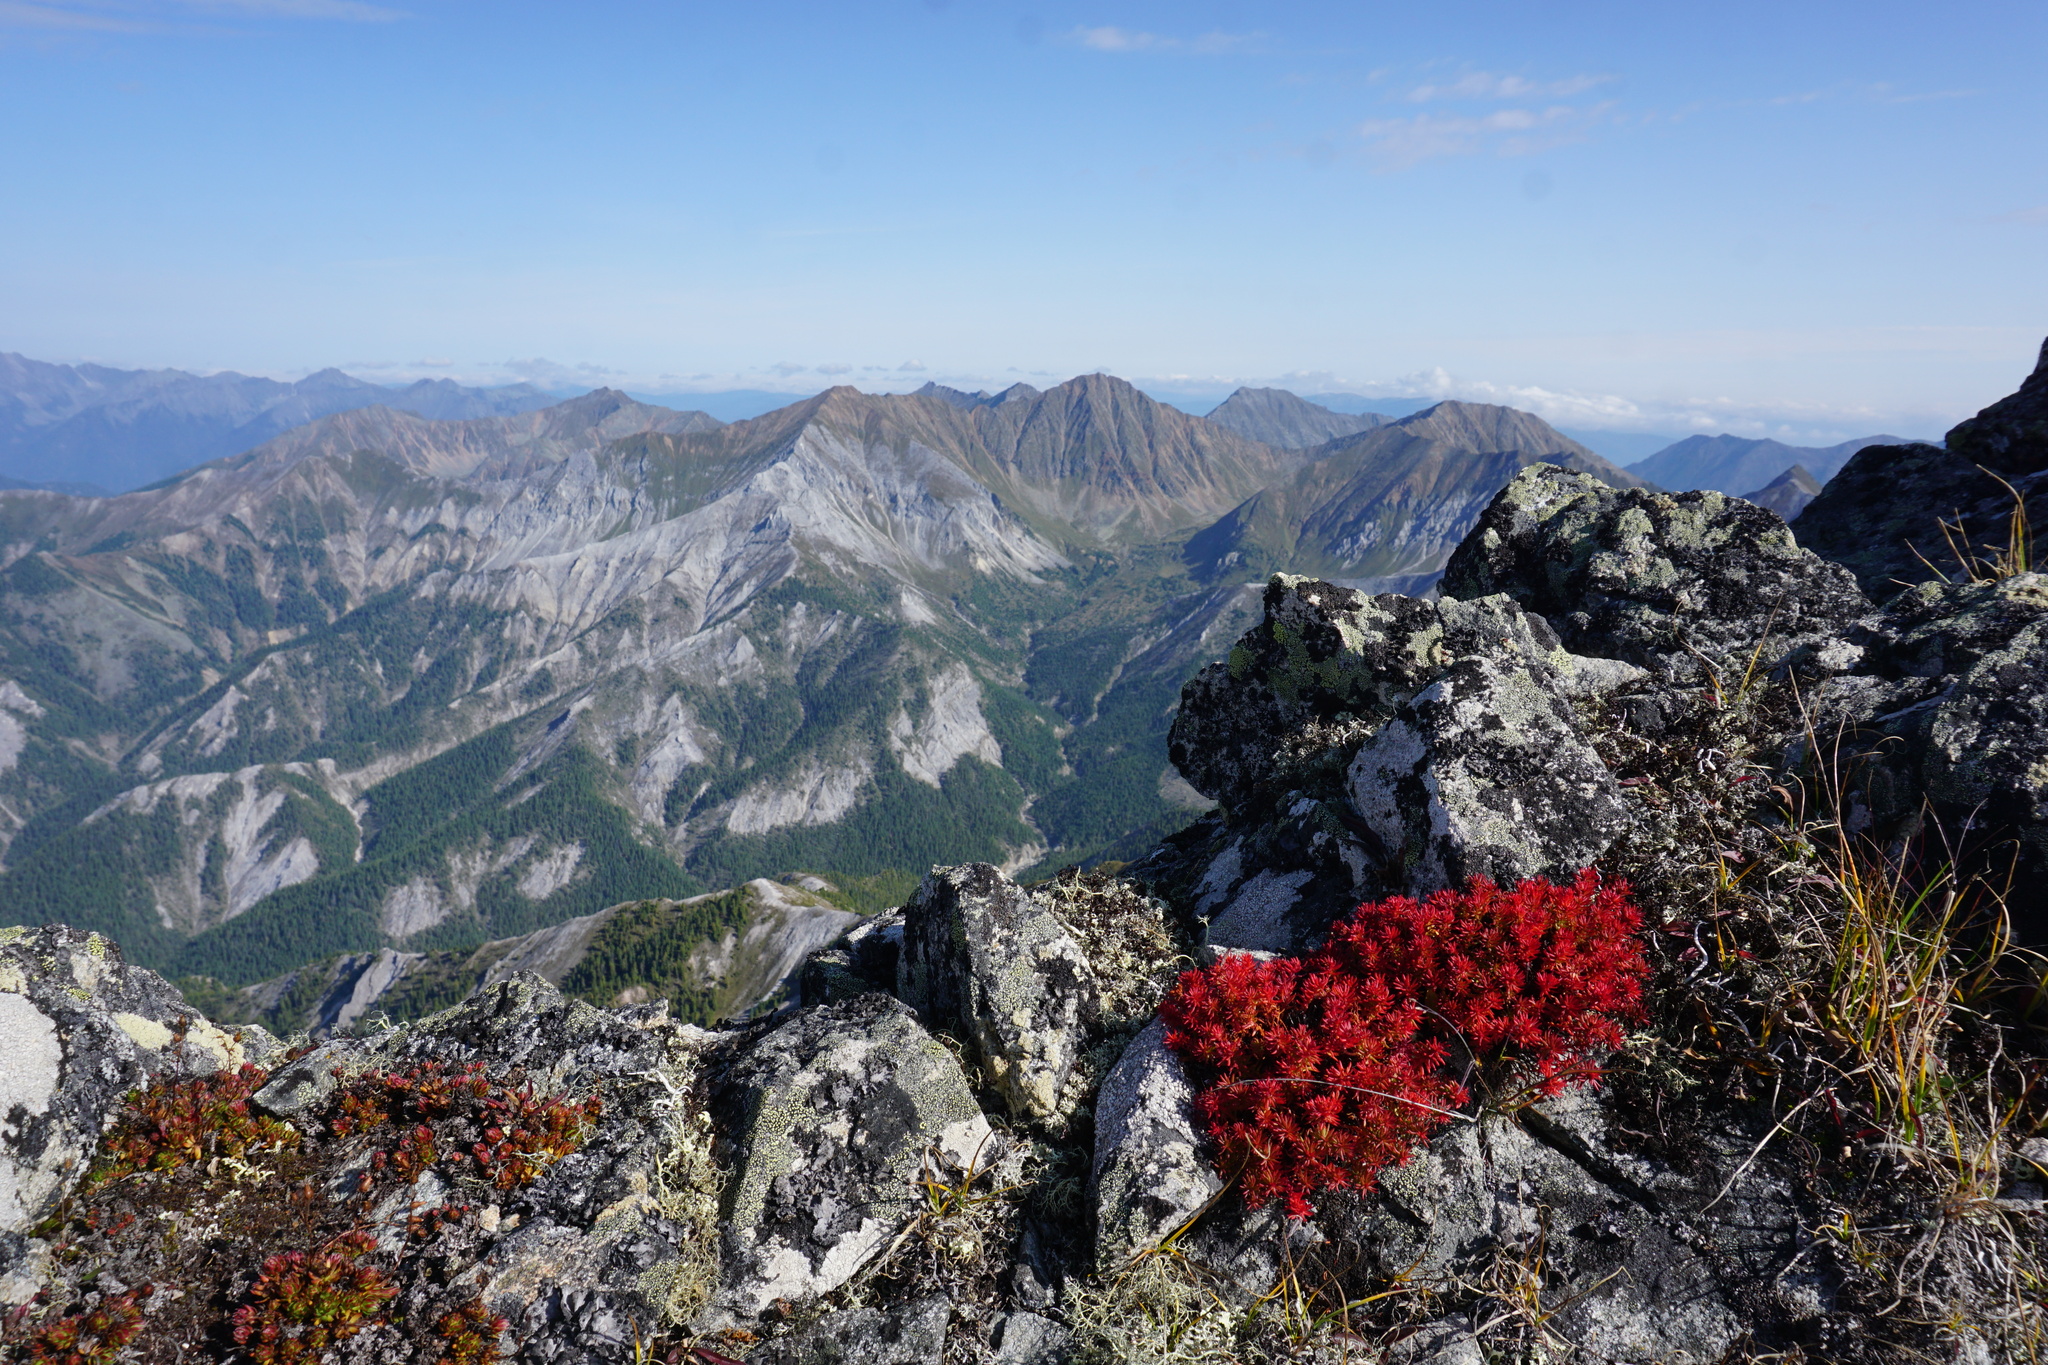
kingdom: Plantae
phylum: Tracheophyta
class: Magnoliopsida
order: Saxifragales
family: Crassulaceae
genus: Rhodiola
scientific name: Rhodiola quadrifida
